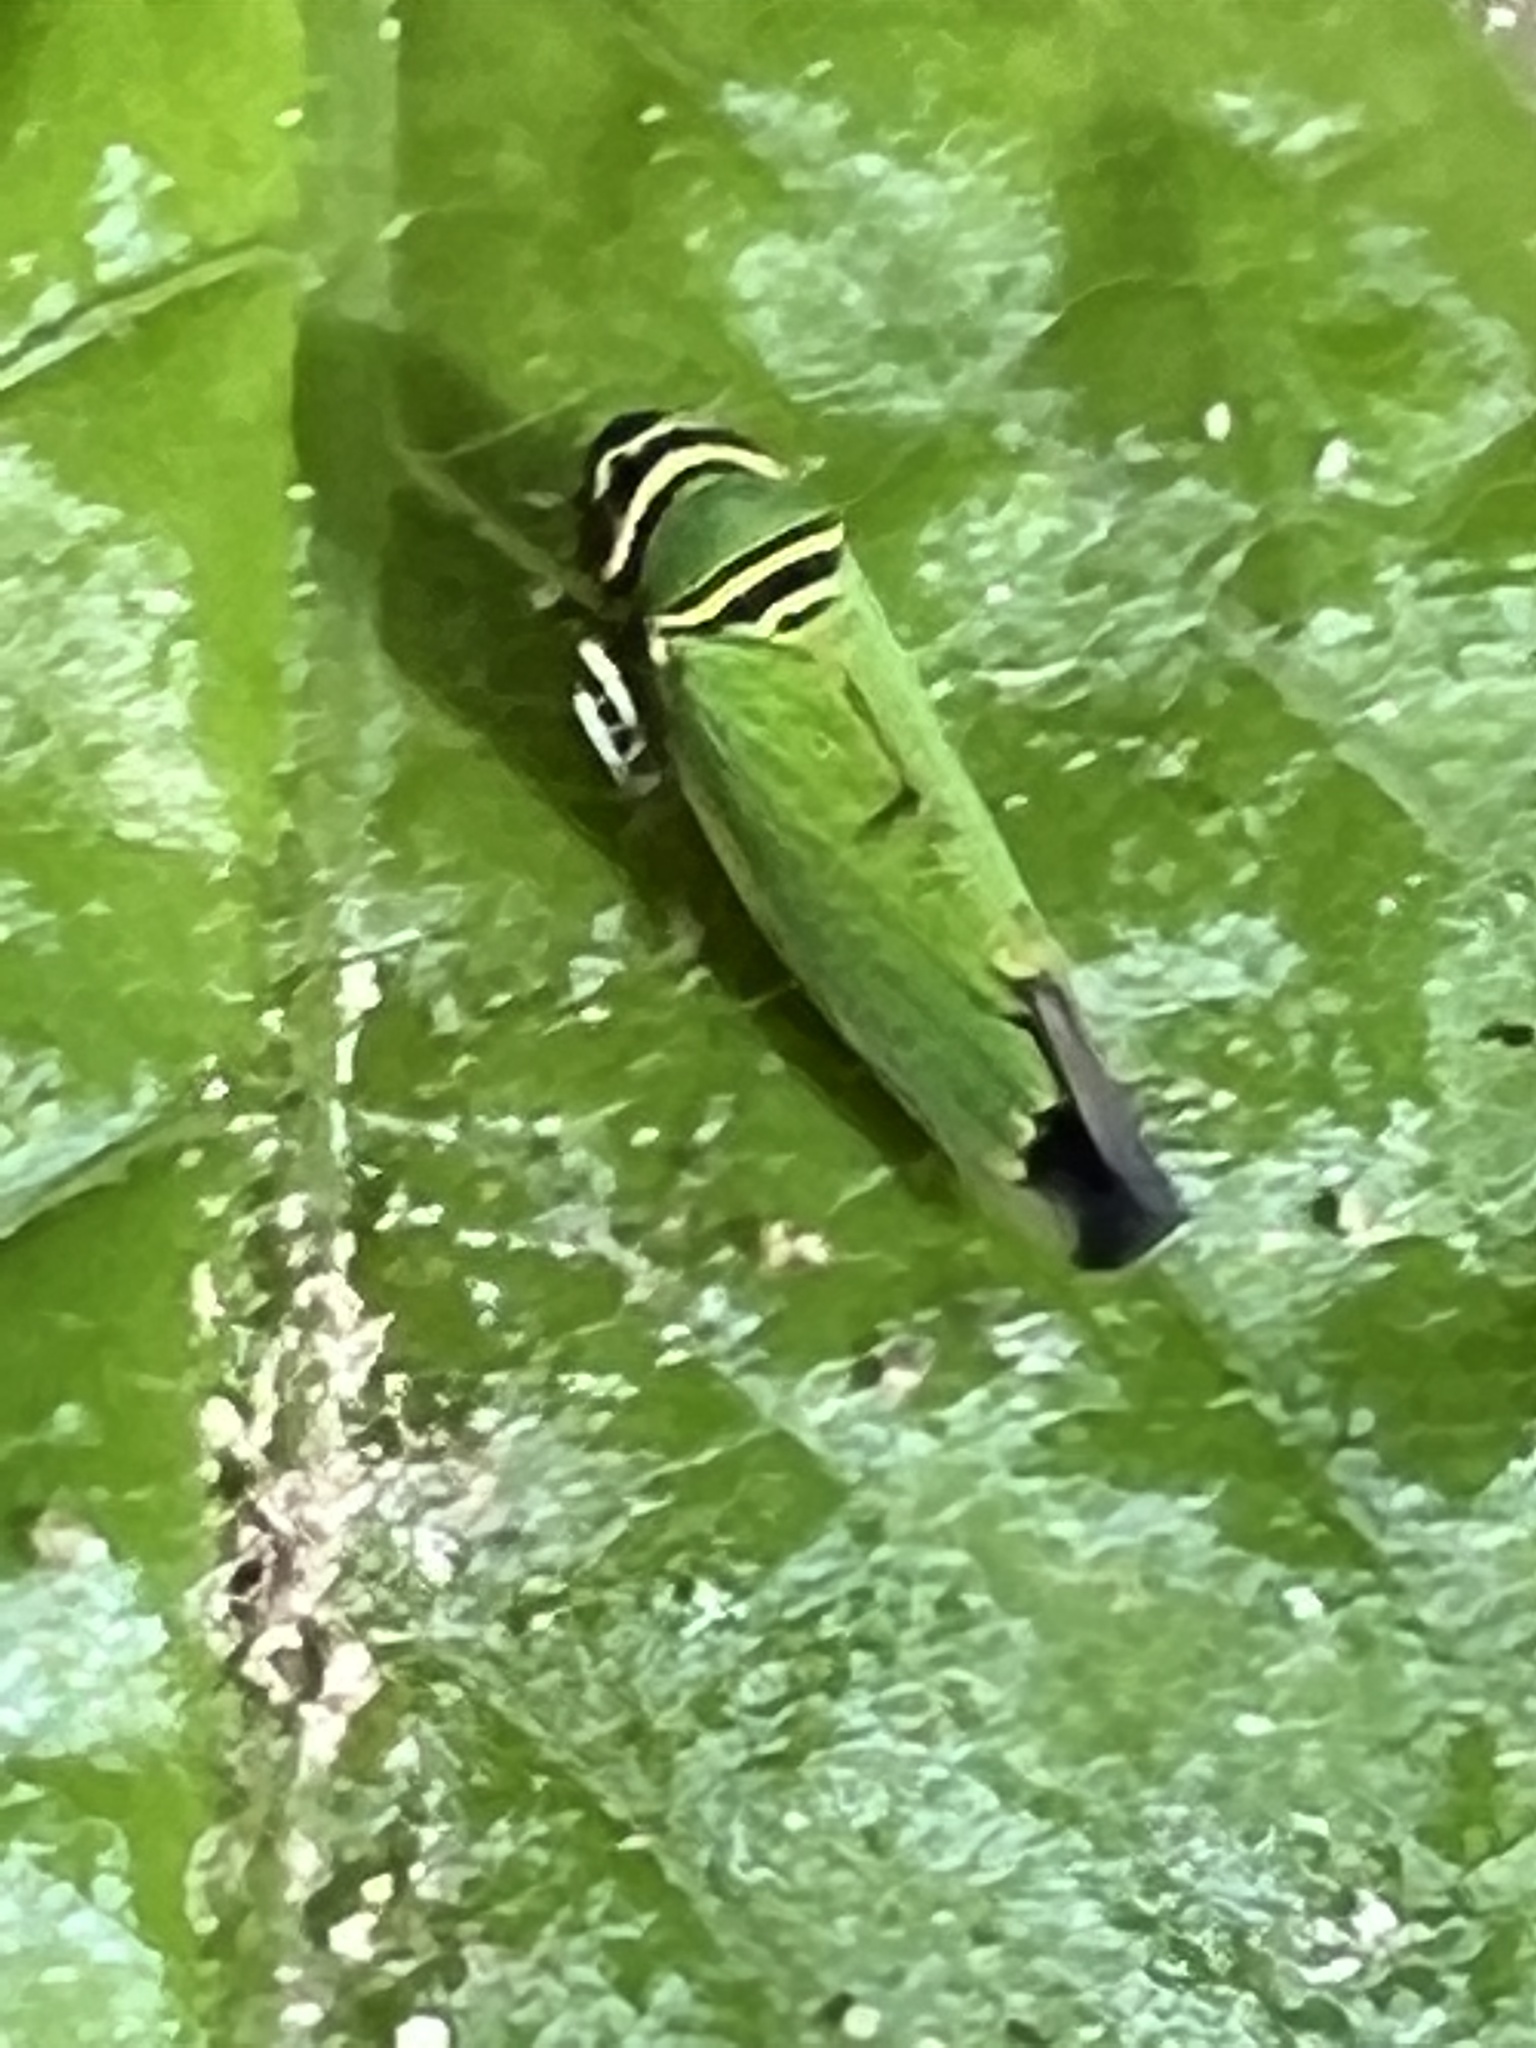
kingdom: Animalia
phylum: Arthropoda
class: Insecta
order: Hemiptera
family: Cicadellidae
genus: Tylozygus
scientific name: Tylozygus geometricus
